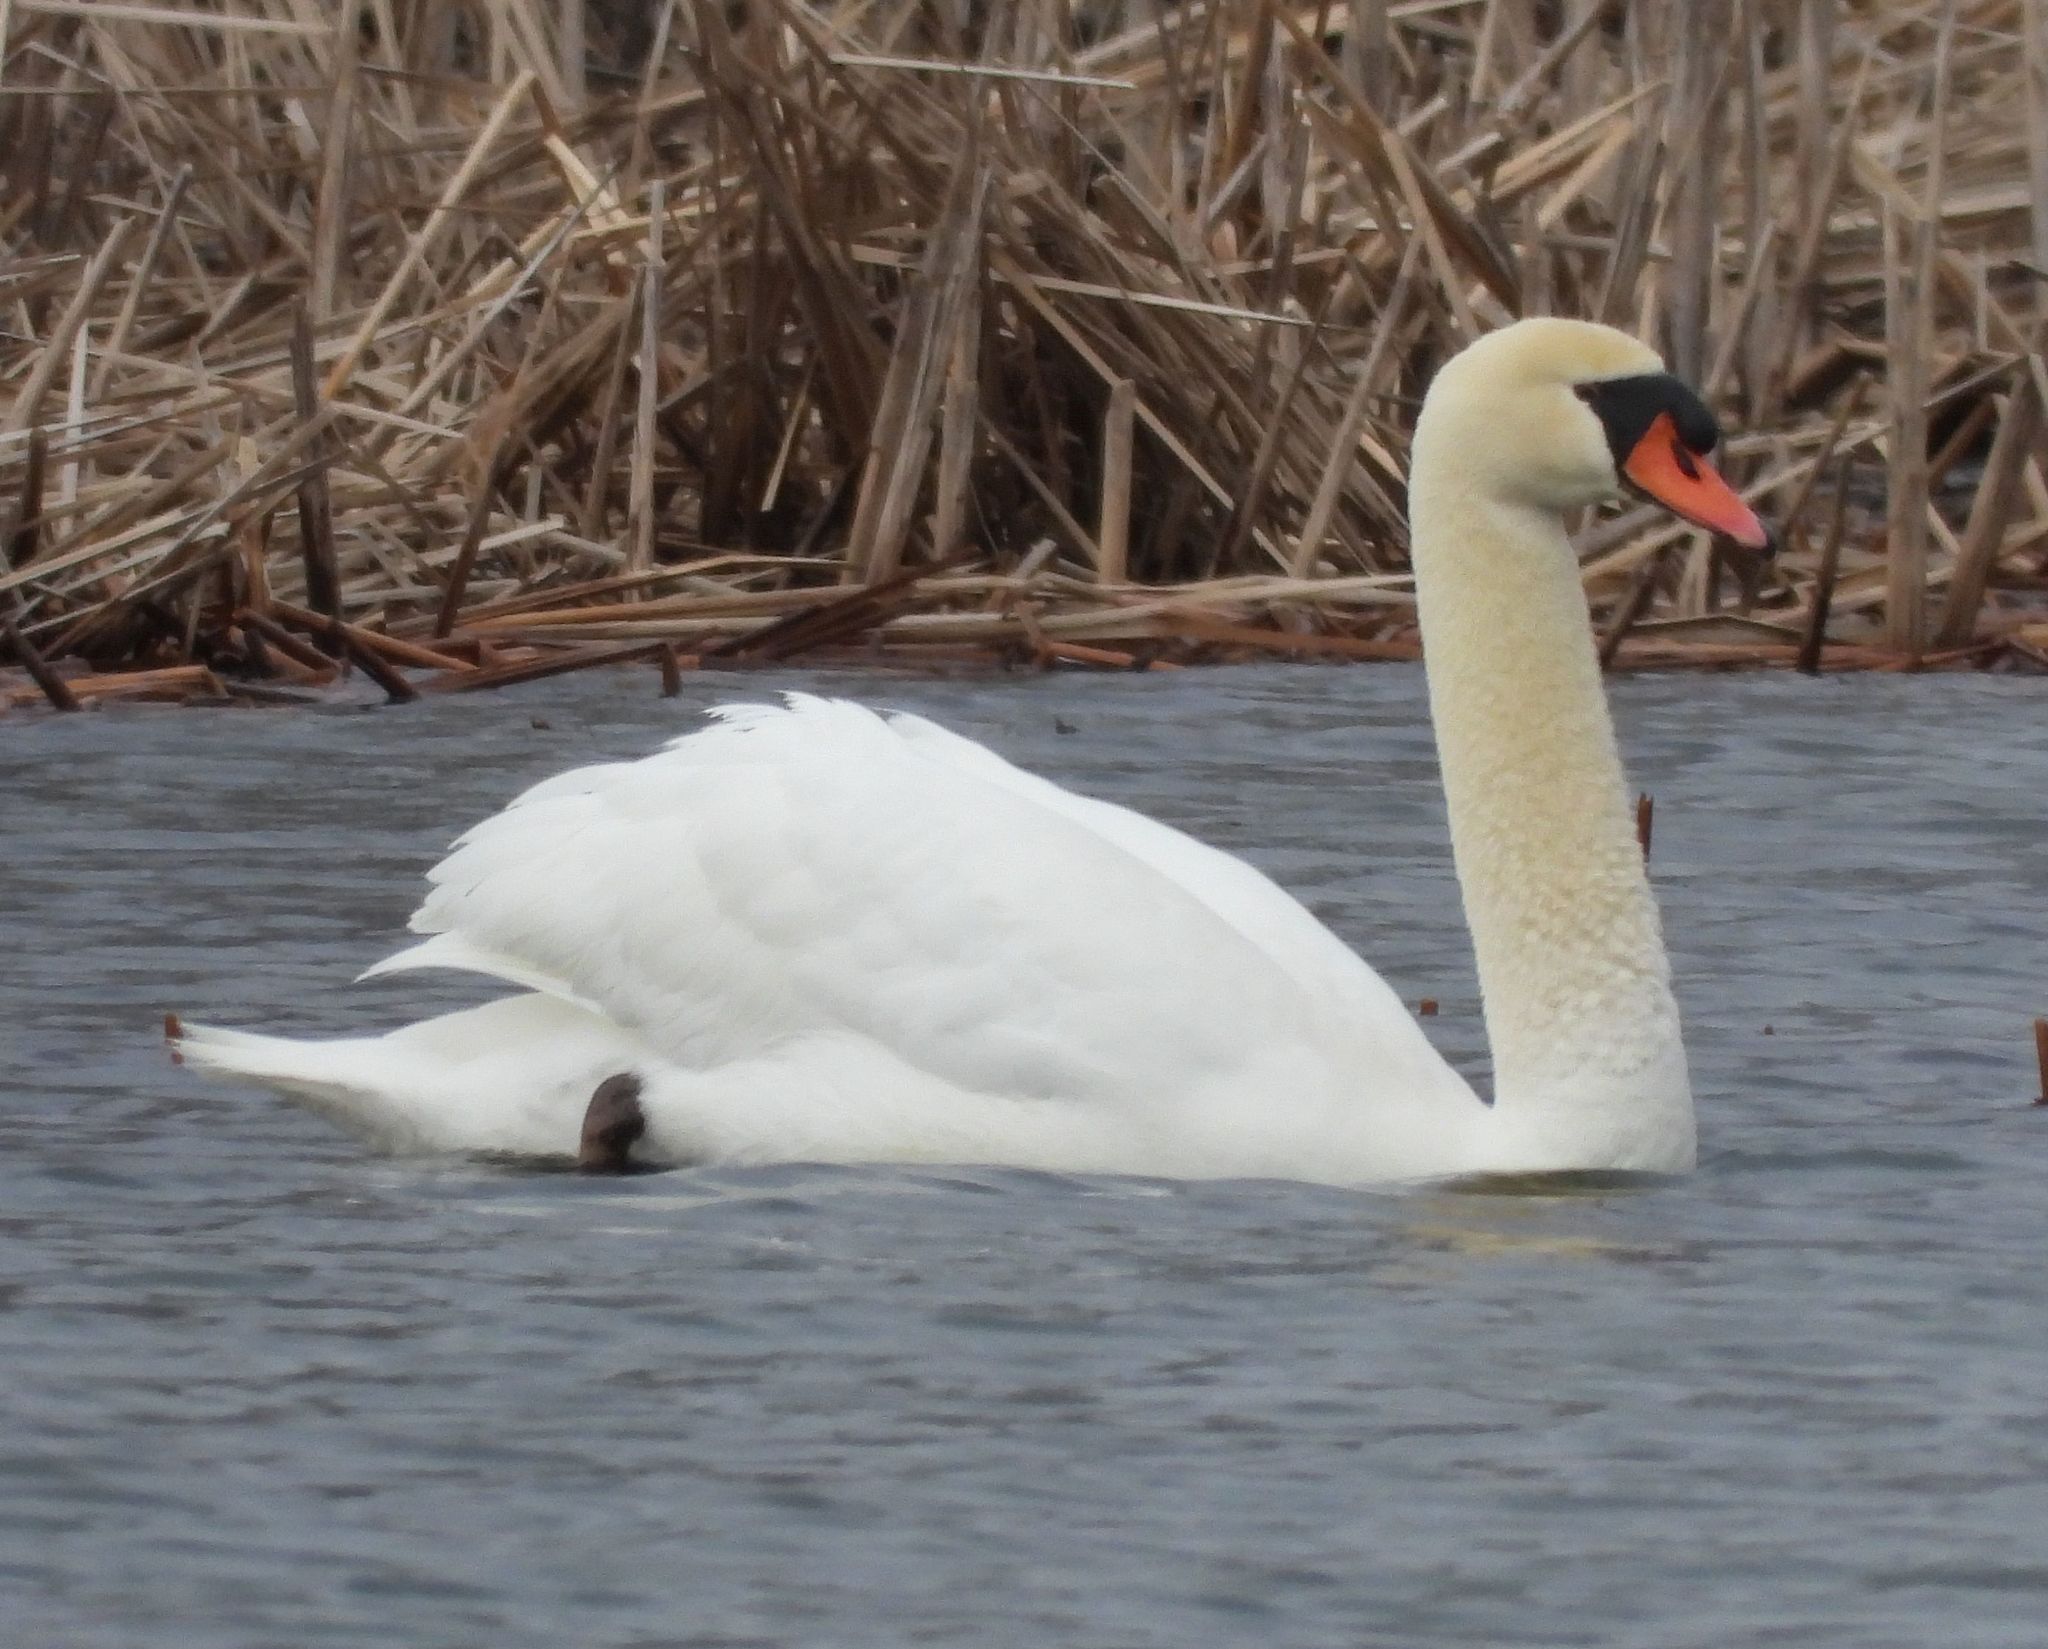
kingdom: Animalia
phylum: Chordata
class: Aves
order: Anseriformes
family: Anatidae
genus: Cygnus
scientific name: Cygnus olor
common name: Mute swan
